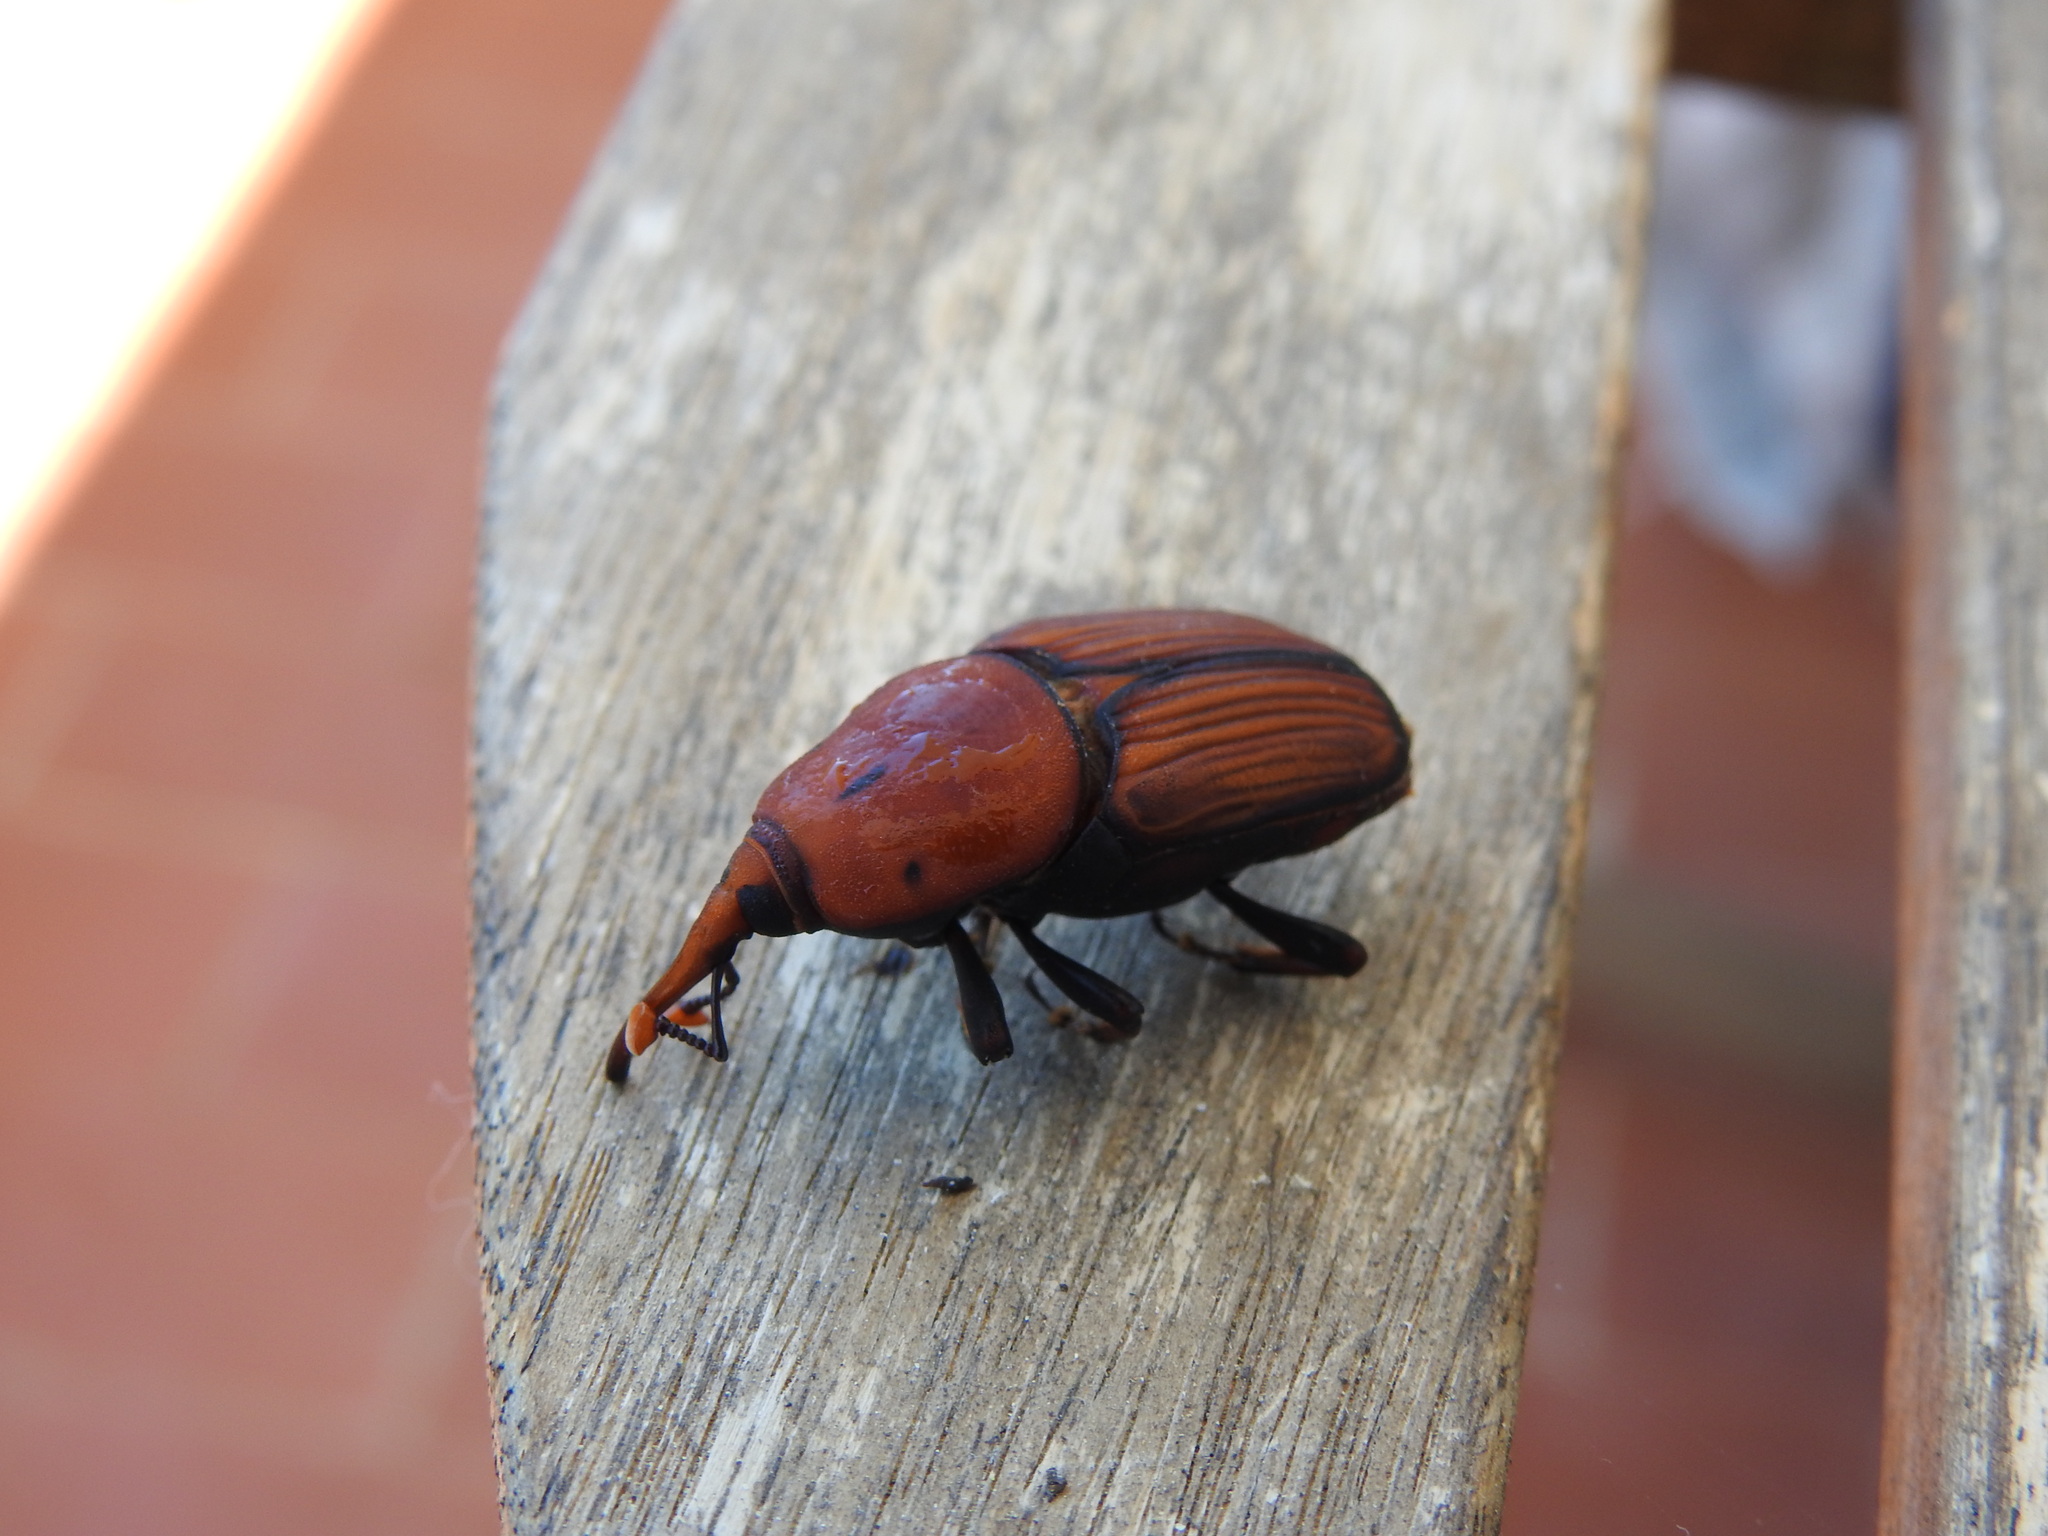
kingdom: Animalia
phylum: Arthropoda
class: Insecta
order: Coleoptera
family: Dryophthoridae
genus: Rhynchophorus
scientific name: Rhynchophorus ferrugineus
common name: Red palm weevil
